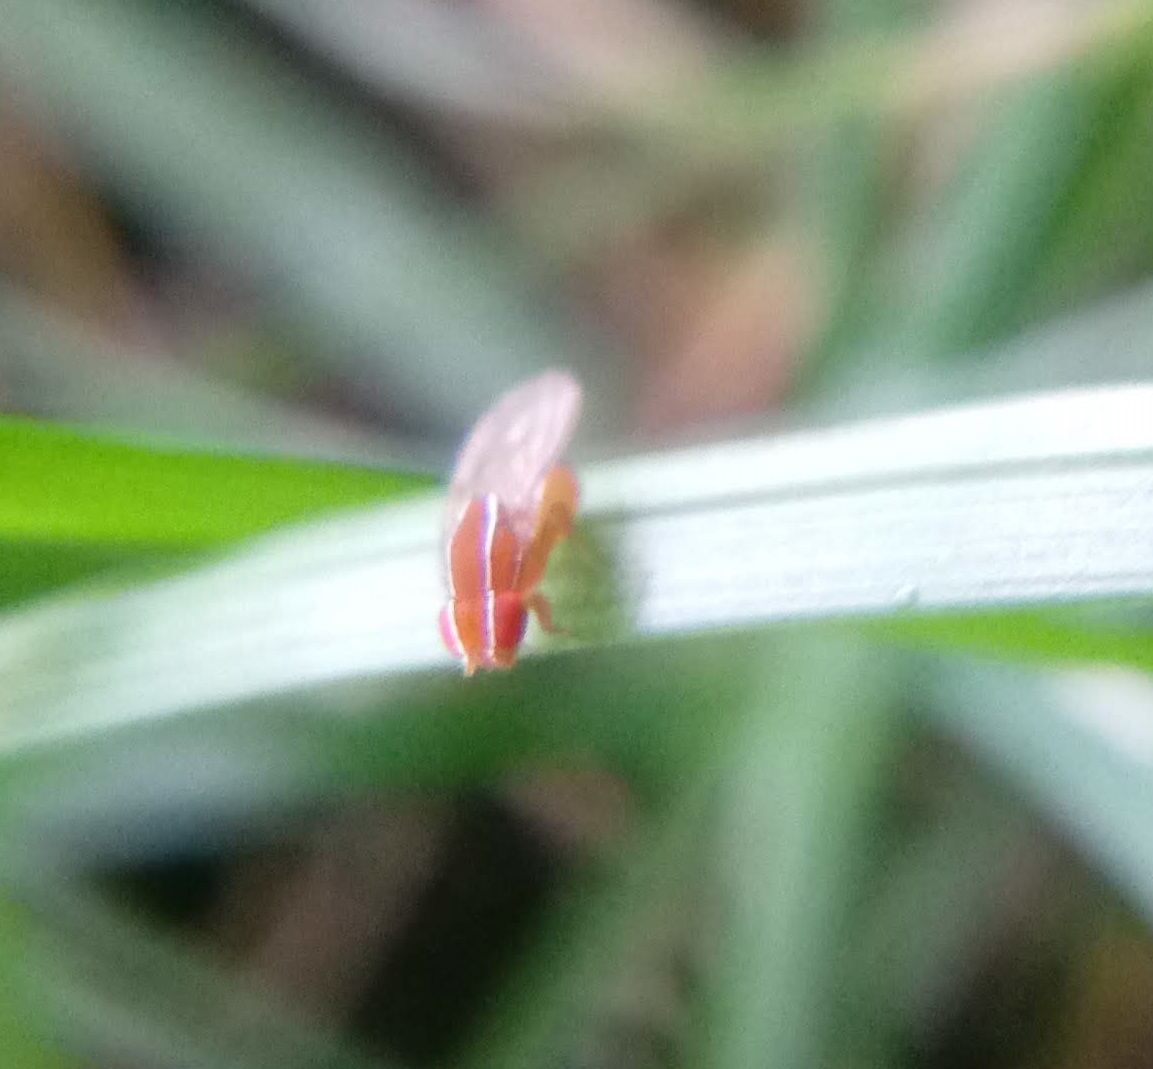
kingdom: Animalia
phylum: Arthropoda
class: Insecta
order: Diptera
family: Drosophilidae
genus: Zaprionus
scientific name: Zaprionus indianus
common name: African fig fly
